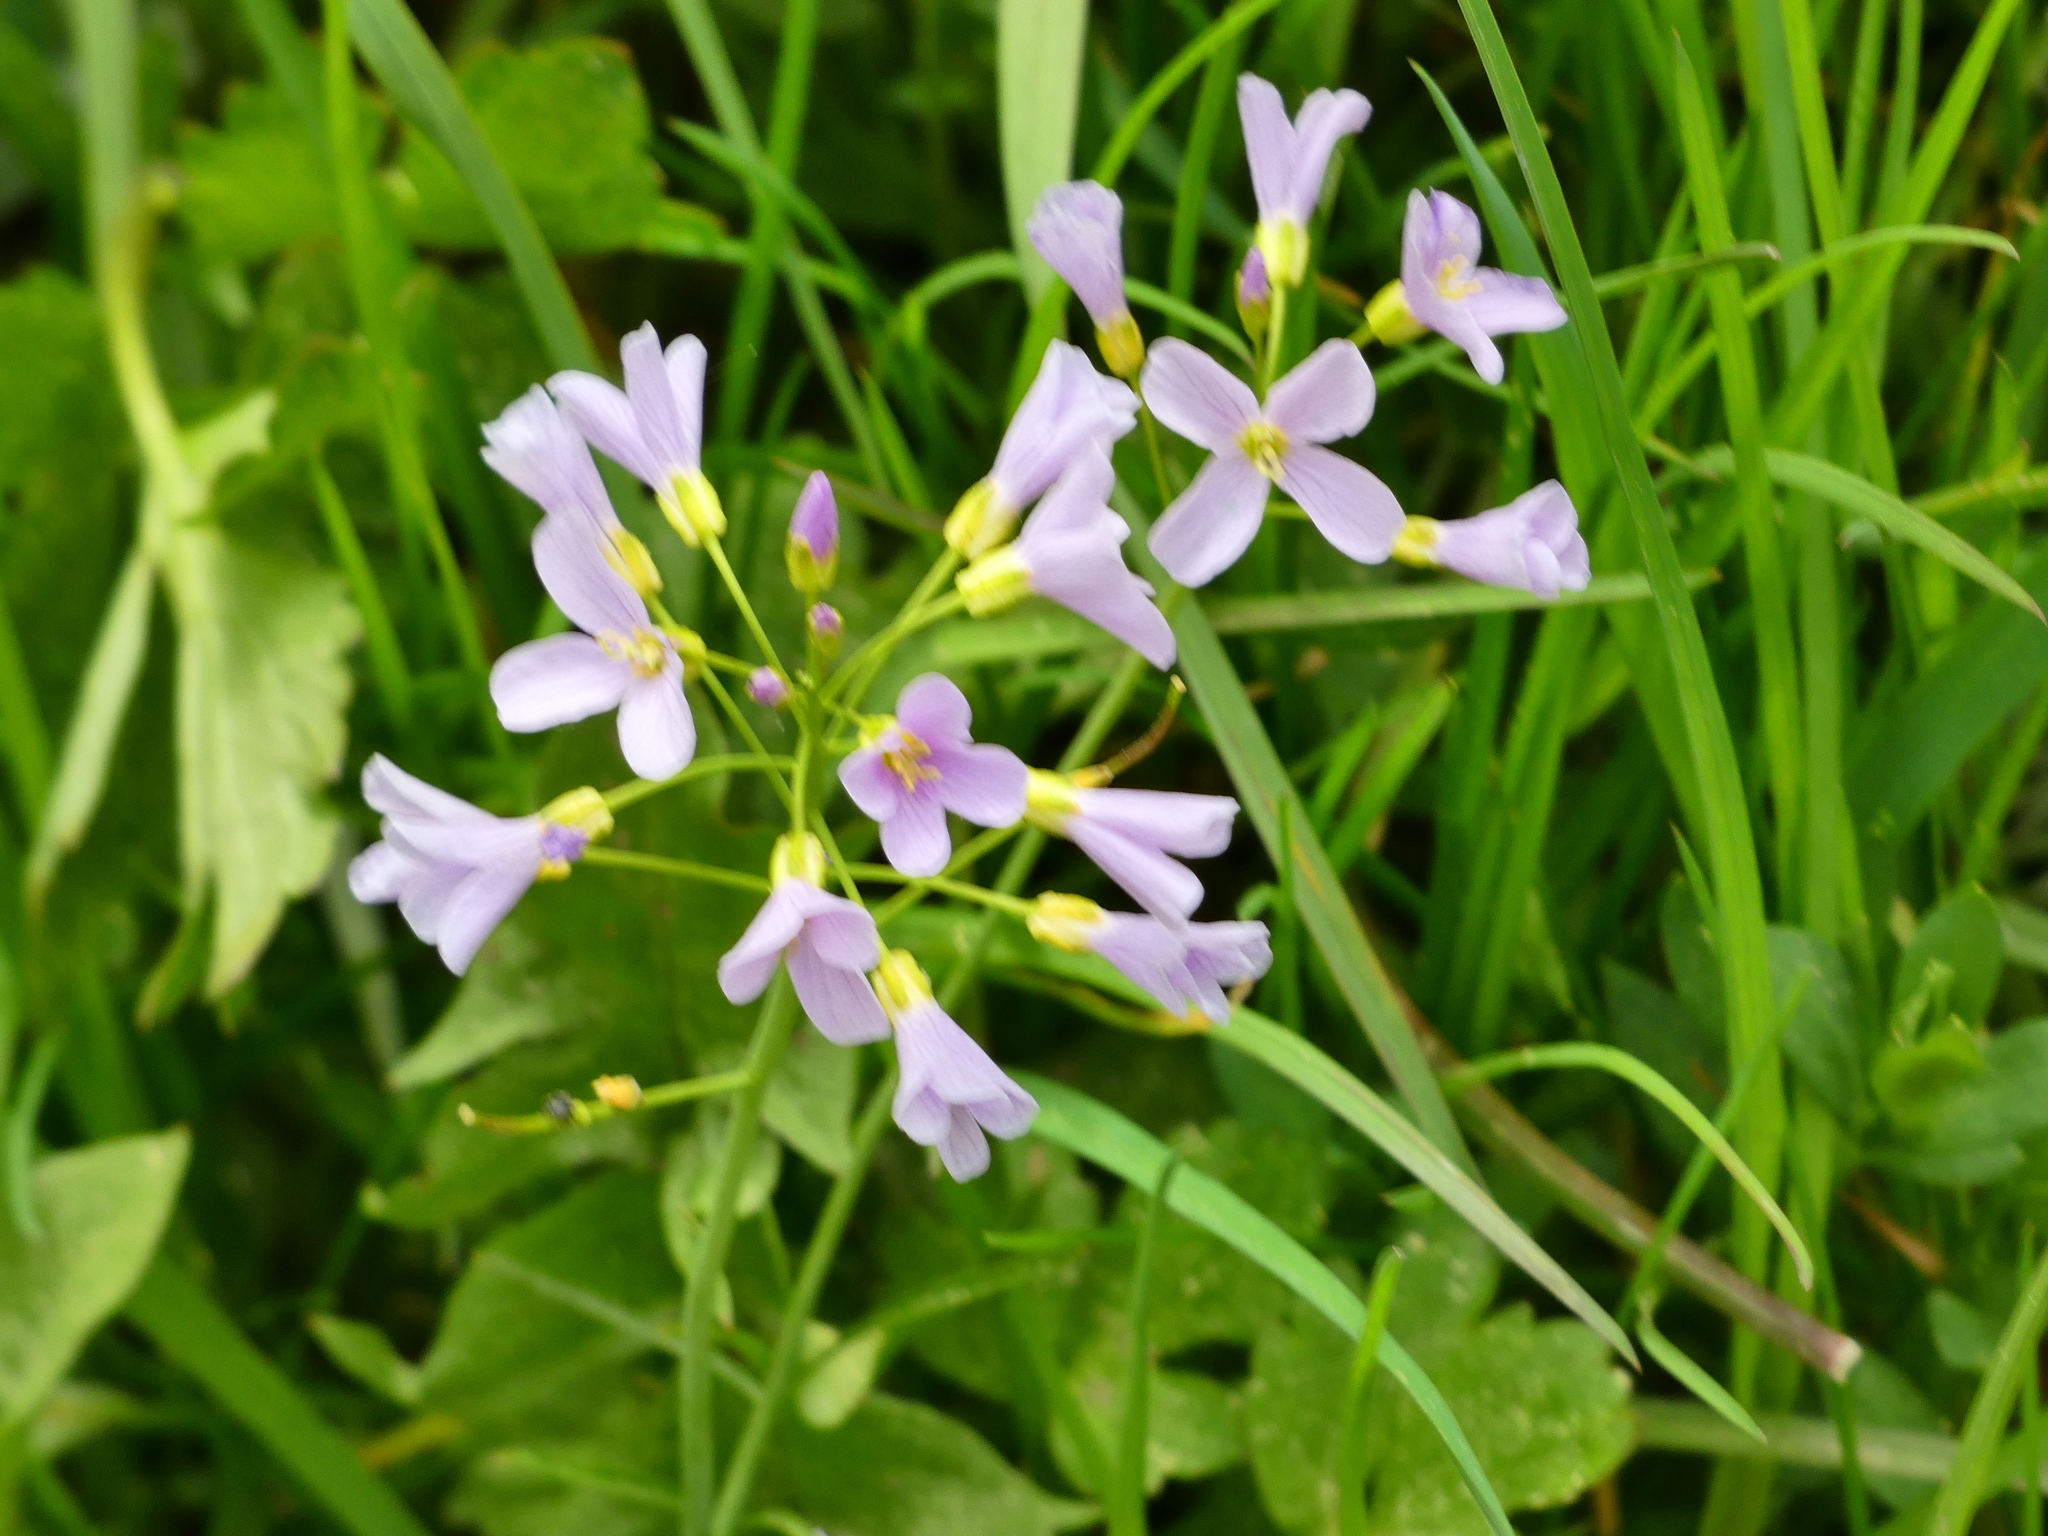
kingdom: Plantae
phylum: Tracheophyta
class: Magnoliopsida
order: Brassicales
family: Brassicaceae
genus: Cardamine
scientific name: Cardamine pratensis
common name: Cuckoo flower
